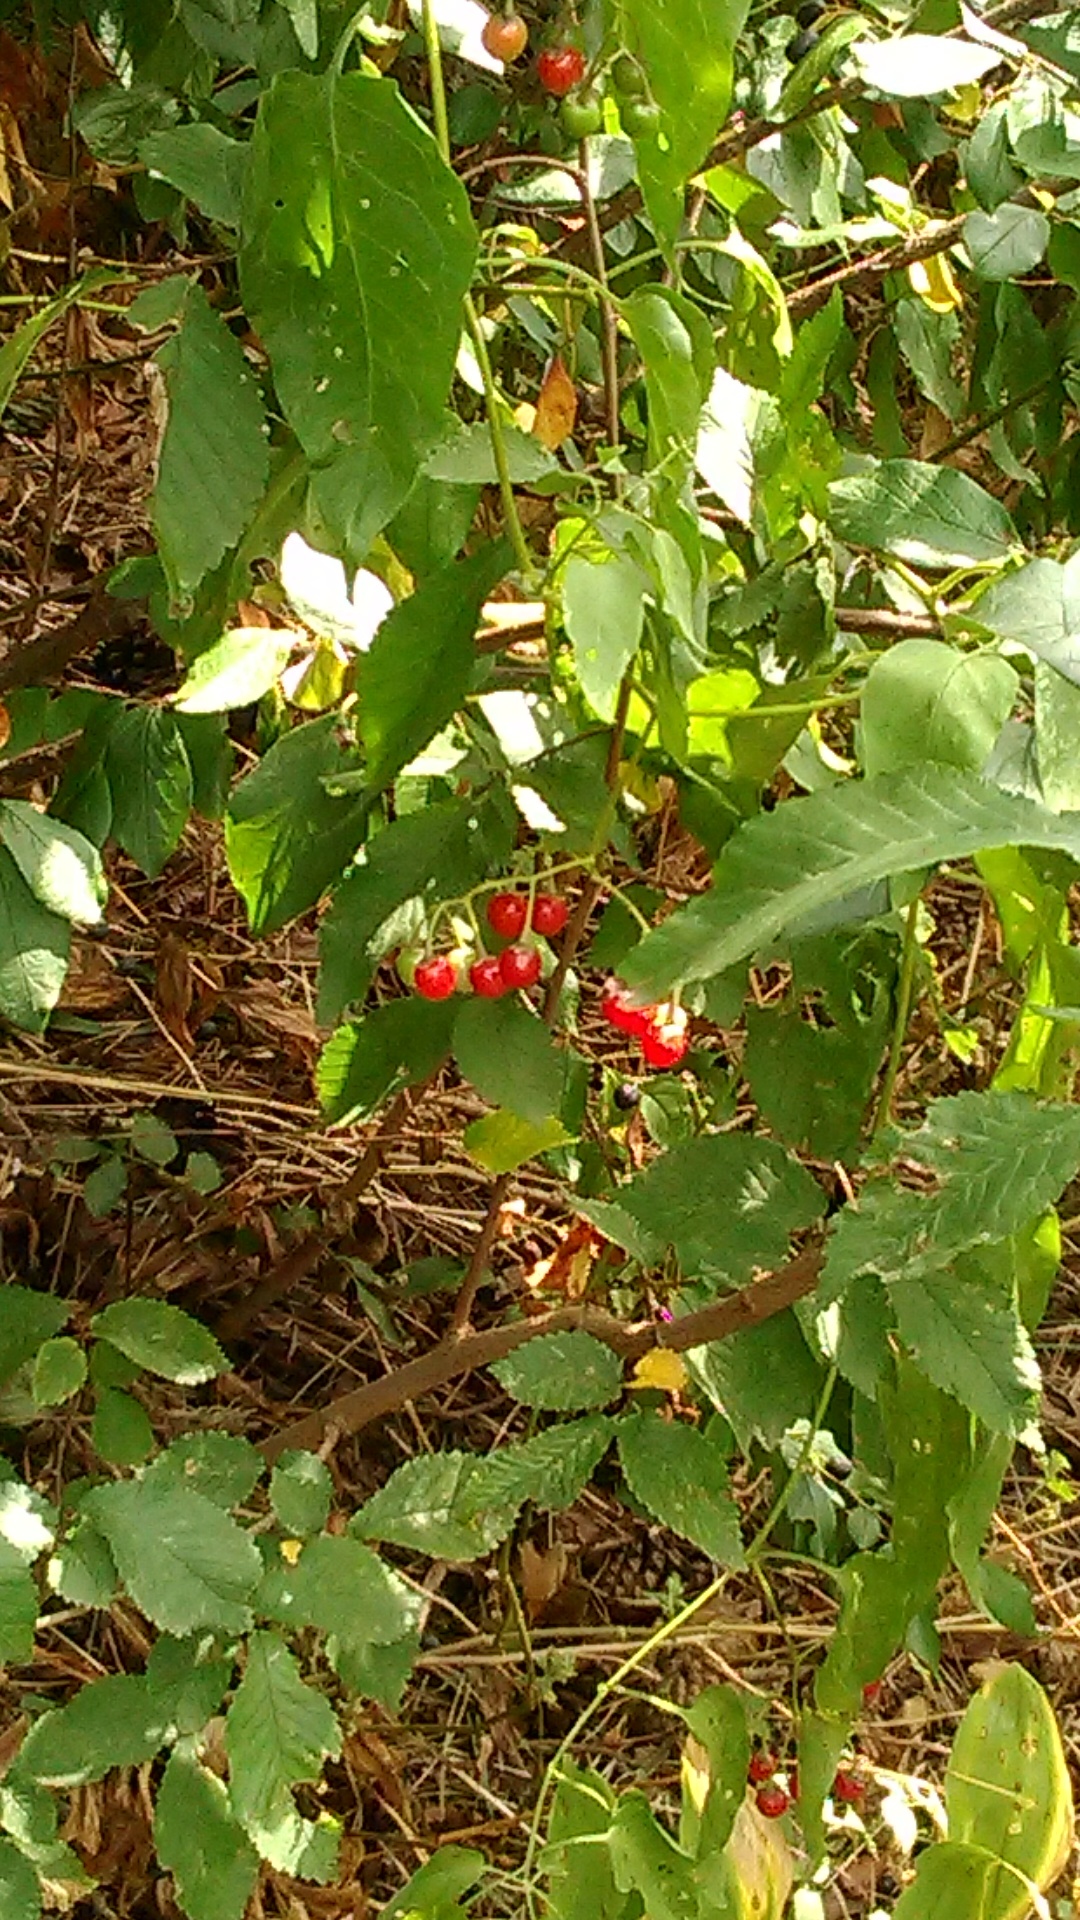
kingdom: Plantae
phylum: Tracheophyta
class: Magnoliopsida
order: Solanales
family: Solanaceae
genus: Solanum
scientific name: Solanum dulcamara
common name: Climbing nightshade
